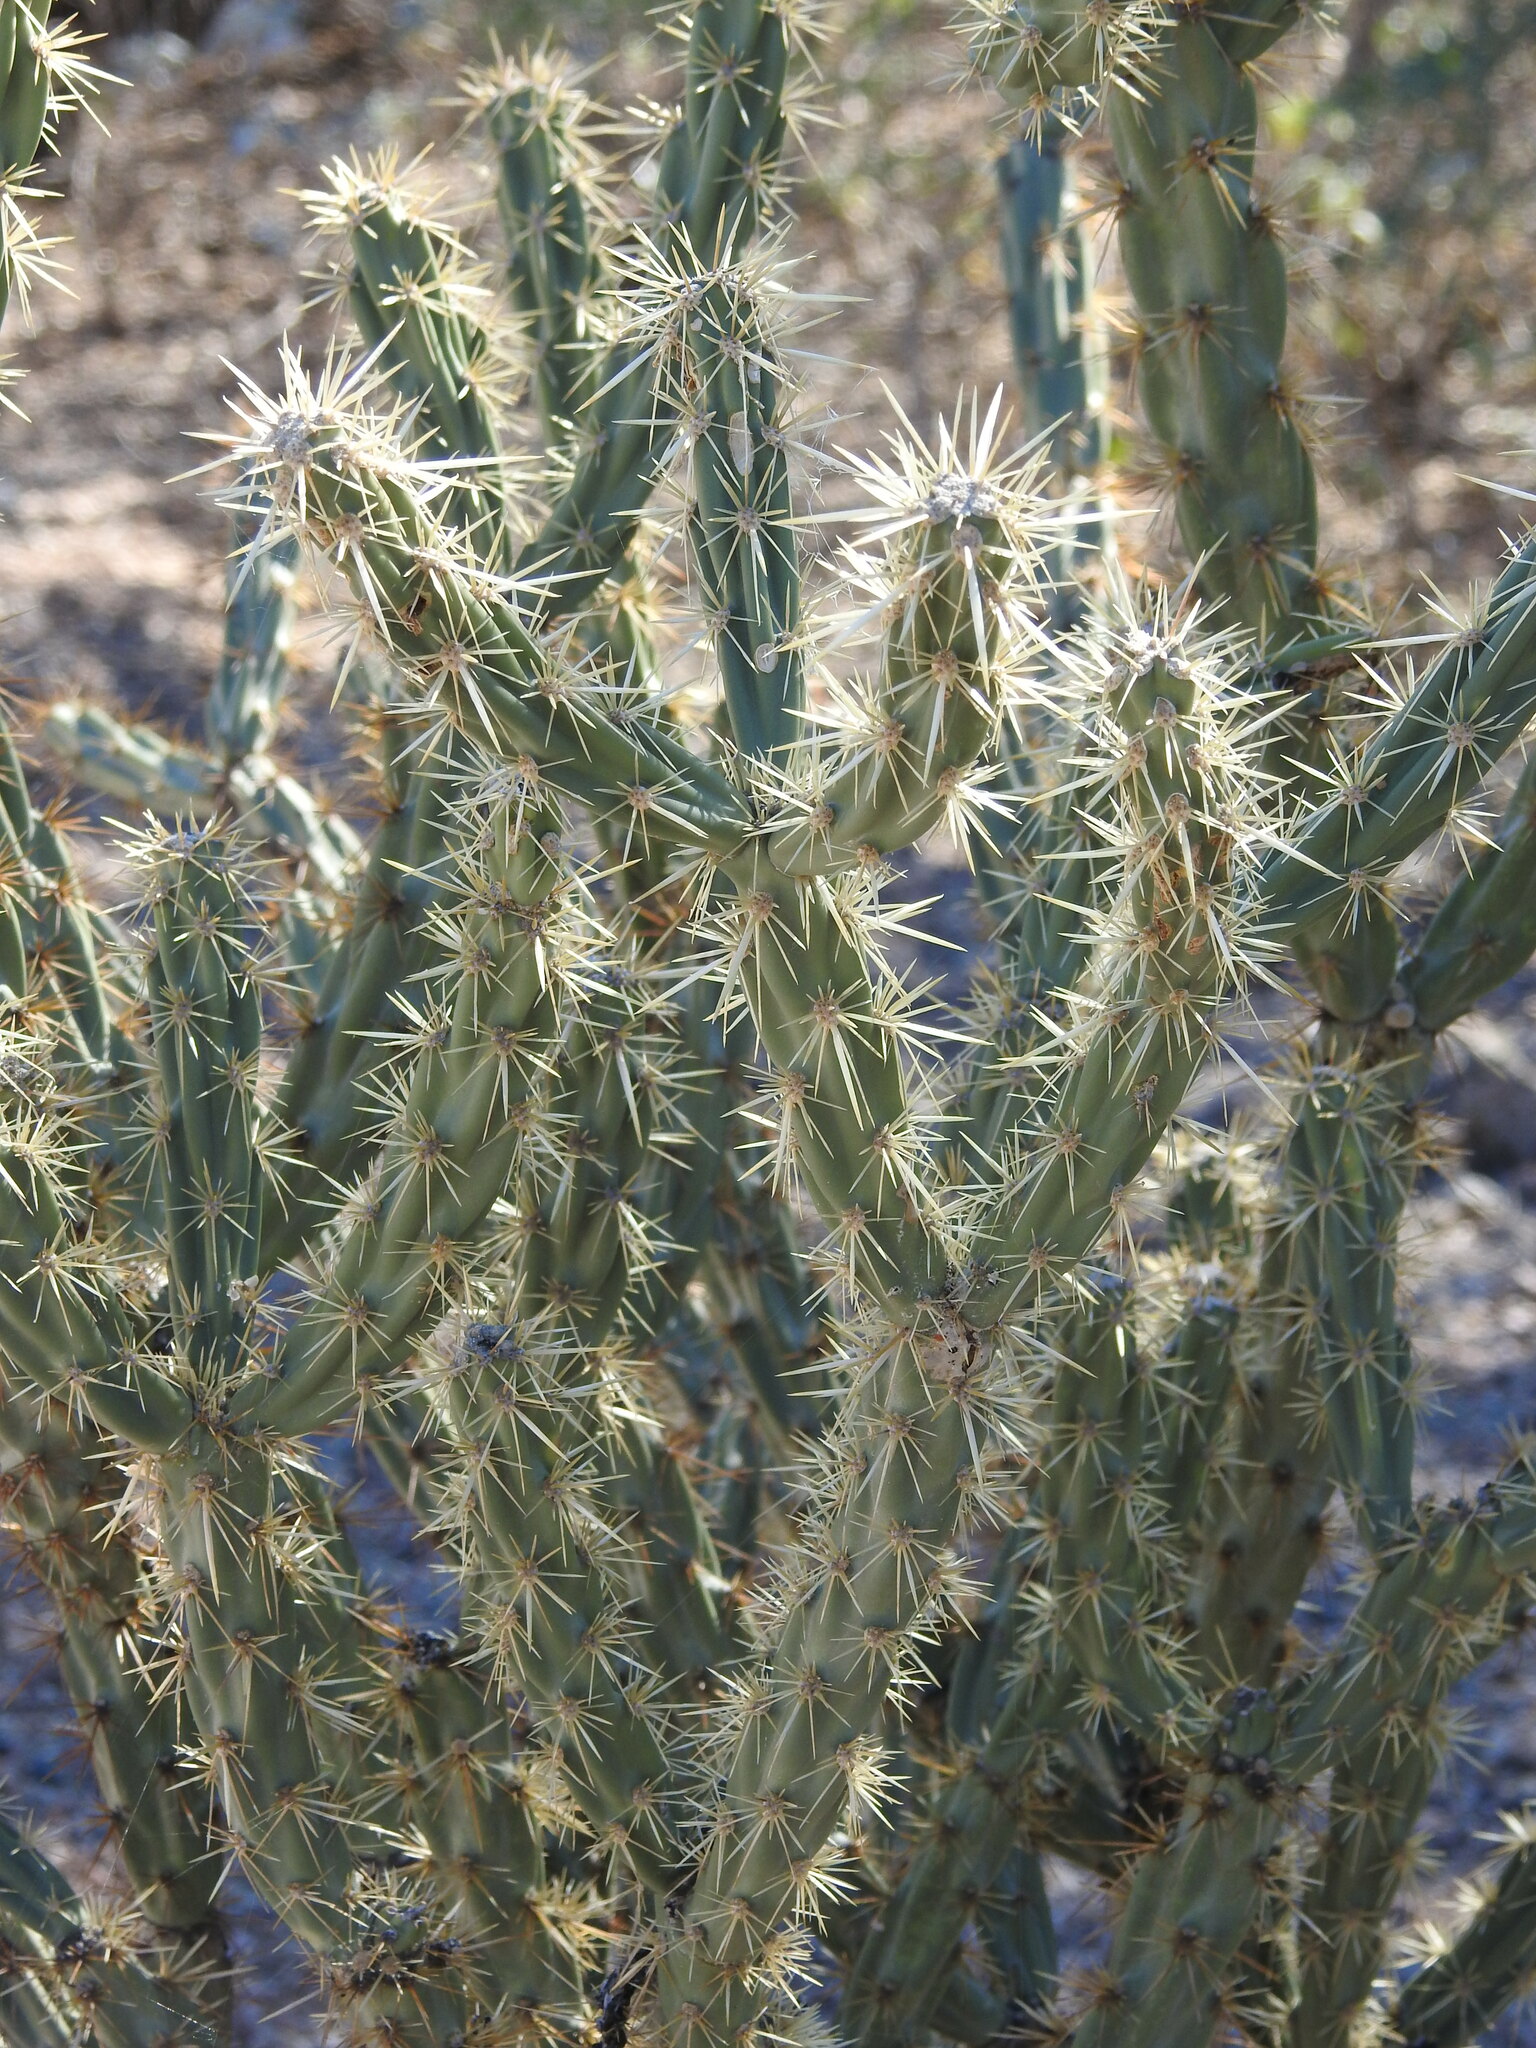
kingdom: Plantae
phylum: Tracheophyta
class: Magnoliopsida
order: Caryophyllales
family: Cactaceae
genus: Cylindropuntia
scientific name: Cylindropuntia acanthocarpa
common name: Buckhorn cholla
